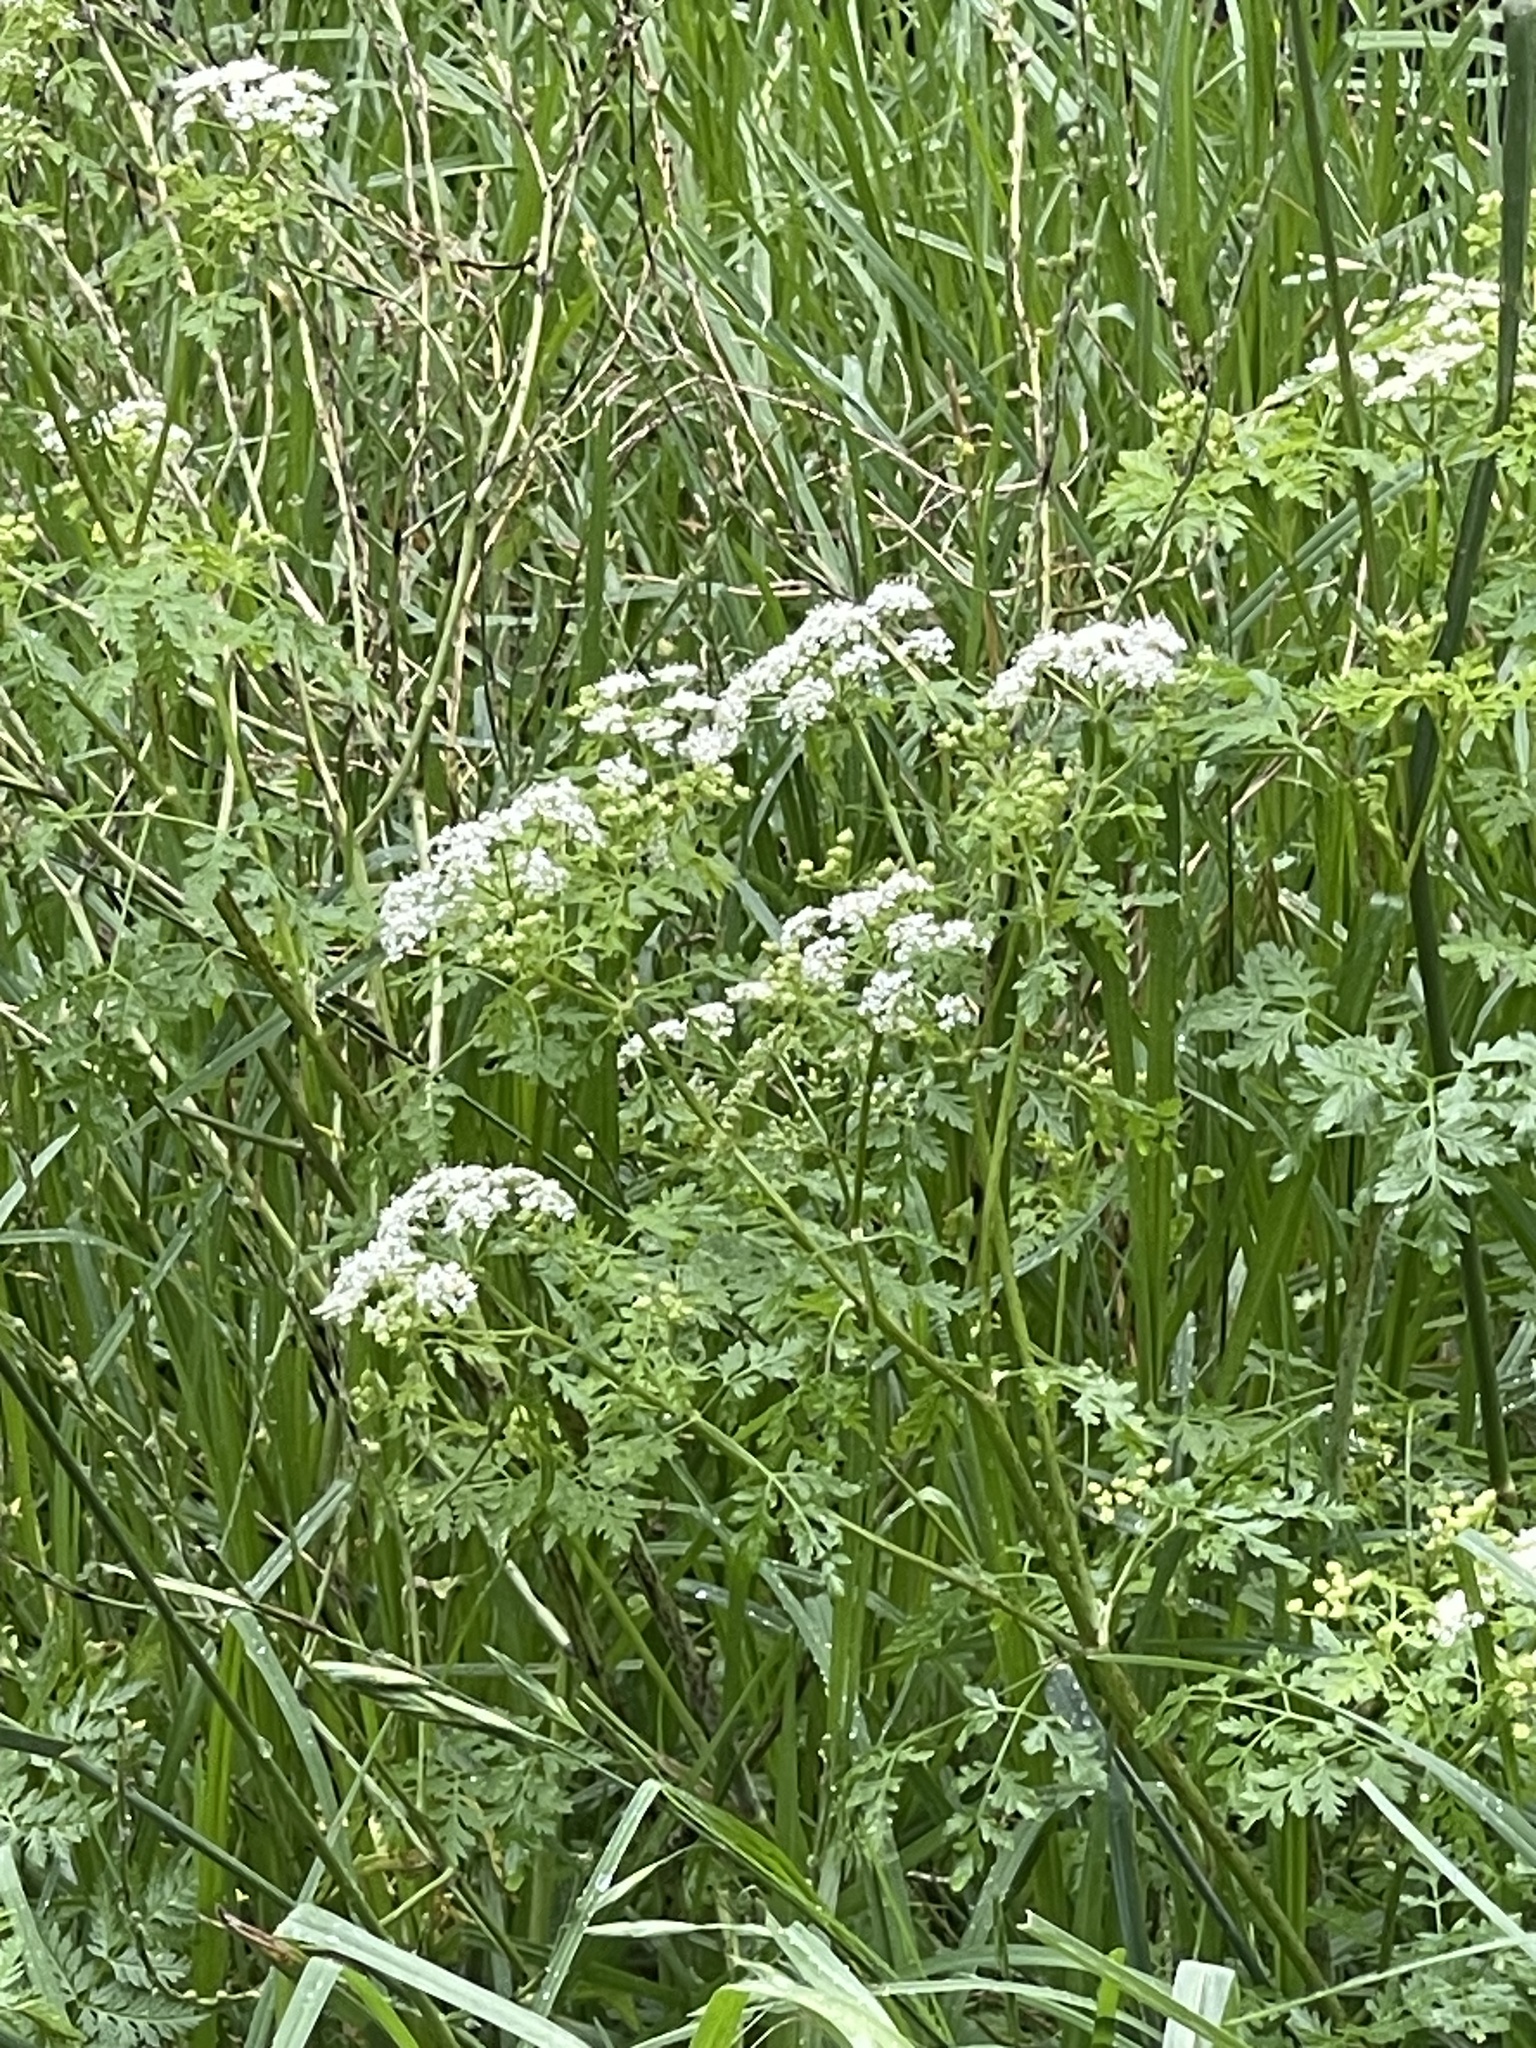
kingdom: Plantae
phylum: Tracheophyta
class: Magnoliopsida
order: Apiales
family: Apiaceae
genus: Conium
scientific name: Conium maculatum
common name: Hemlock
